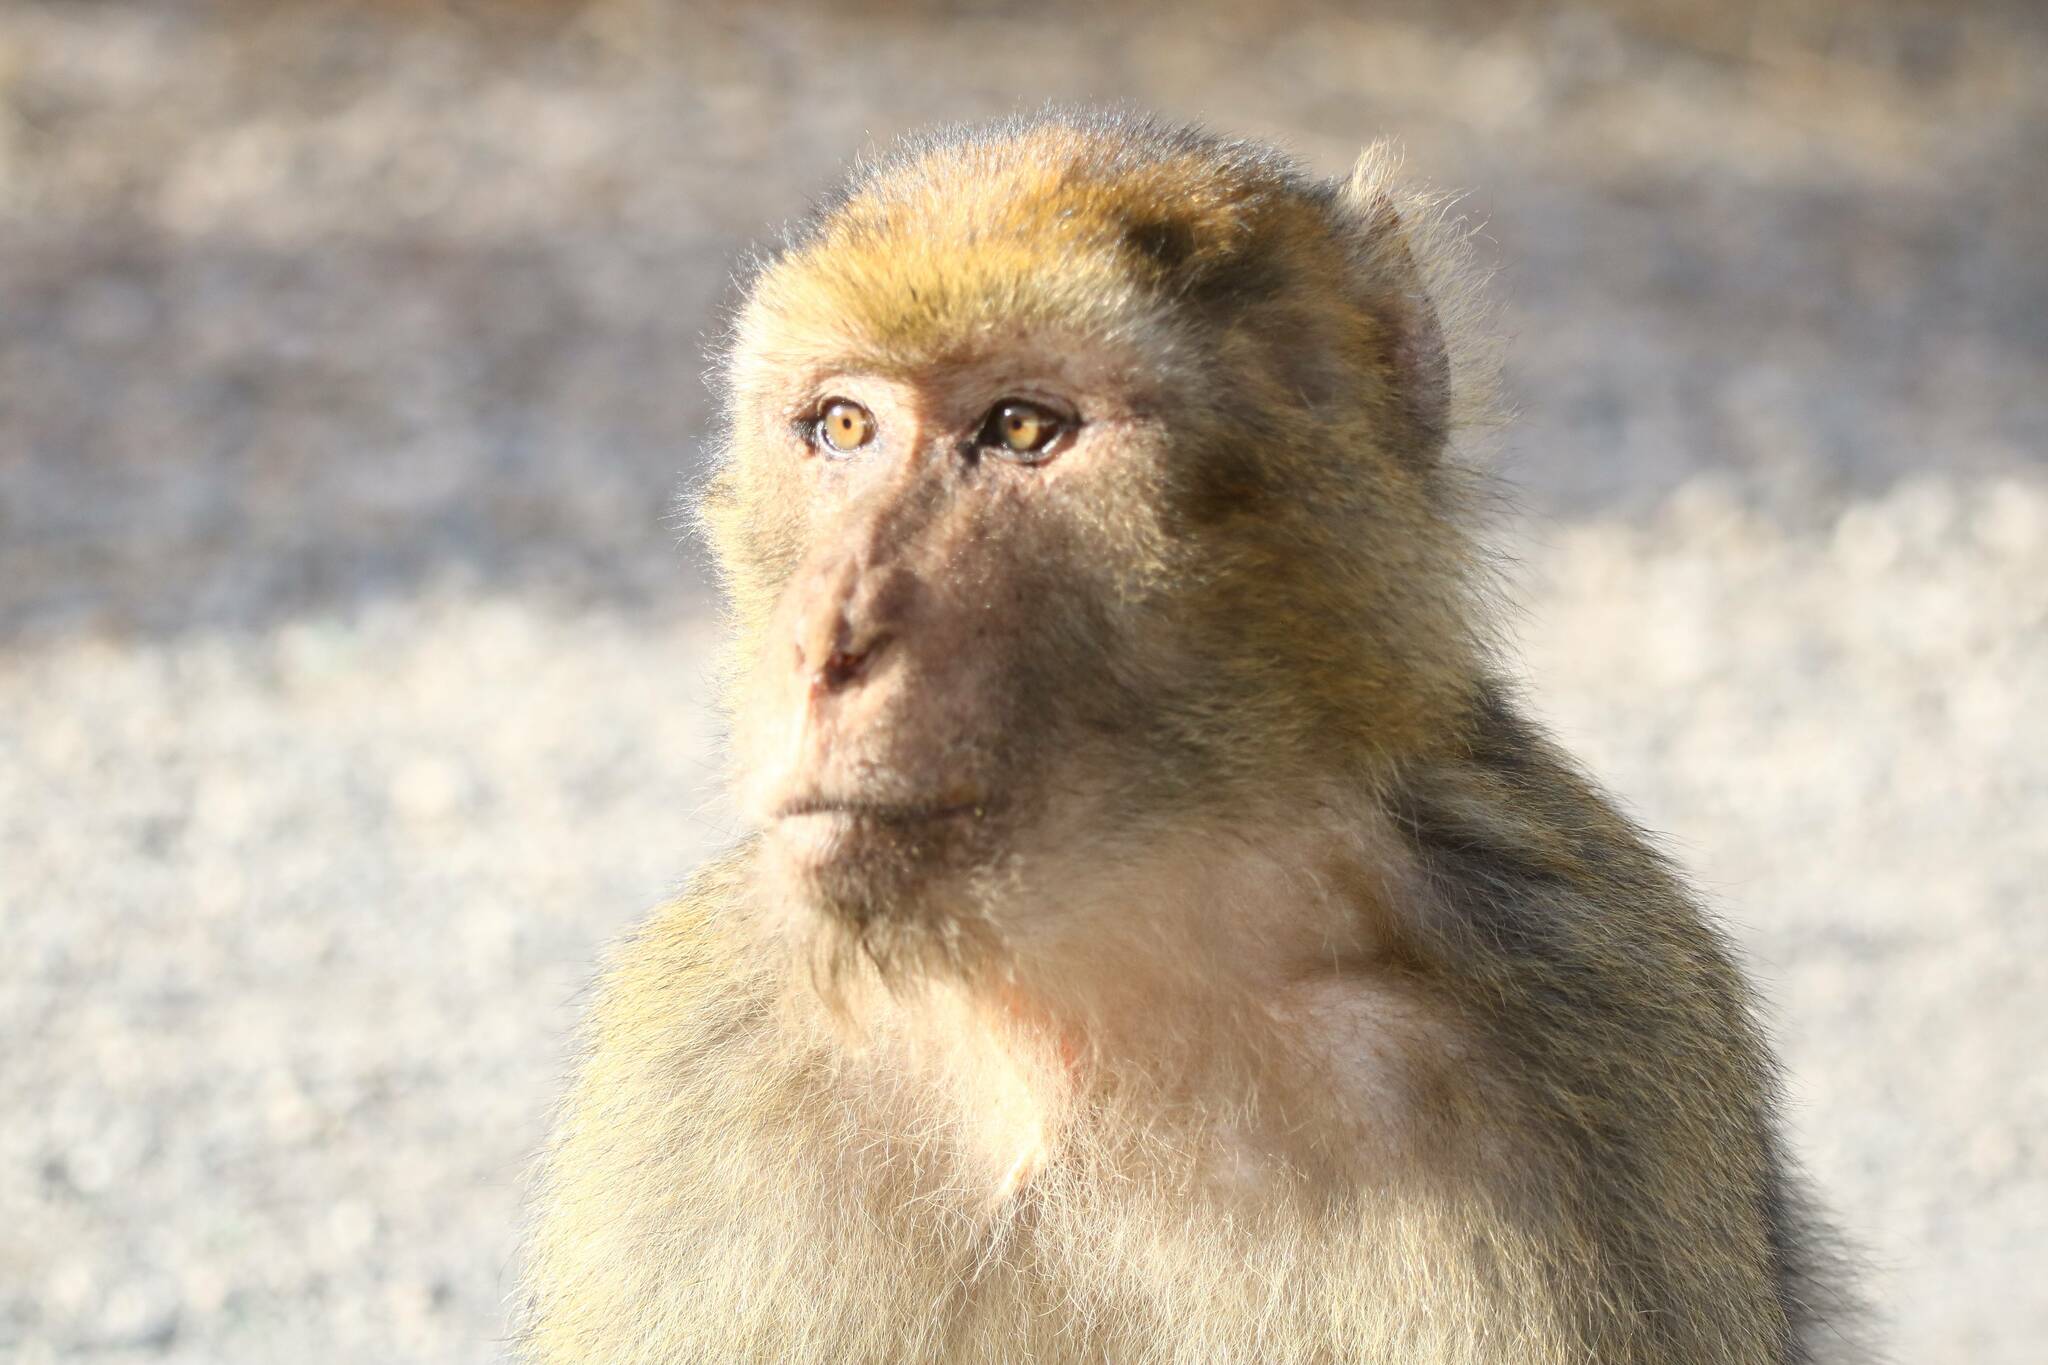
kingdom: Animalia
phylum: Chordata
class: Mammalia
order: Primates
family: Cercopithecidae
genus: Macaca
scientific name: Macaca sylvanus
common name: Barbary macaque
